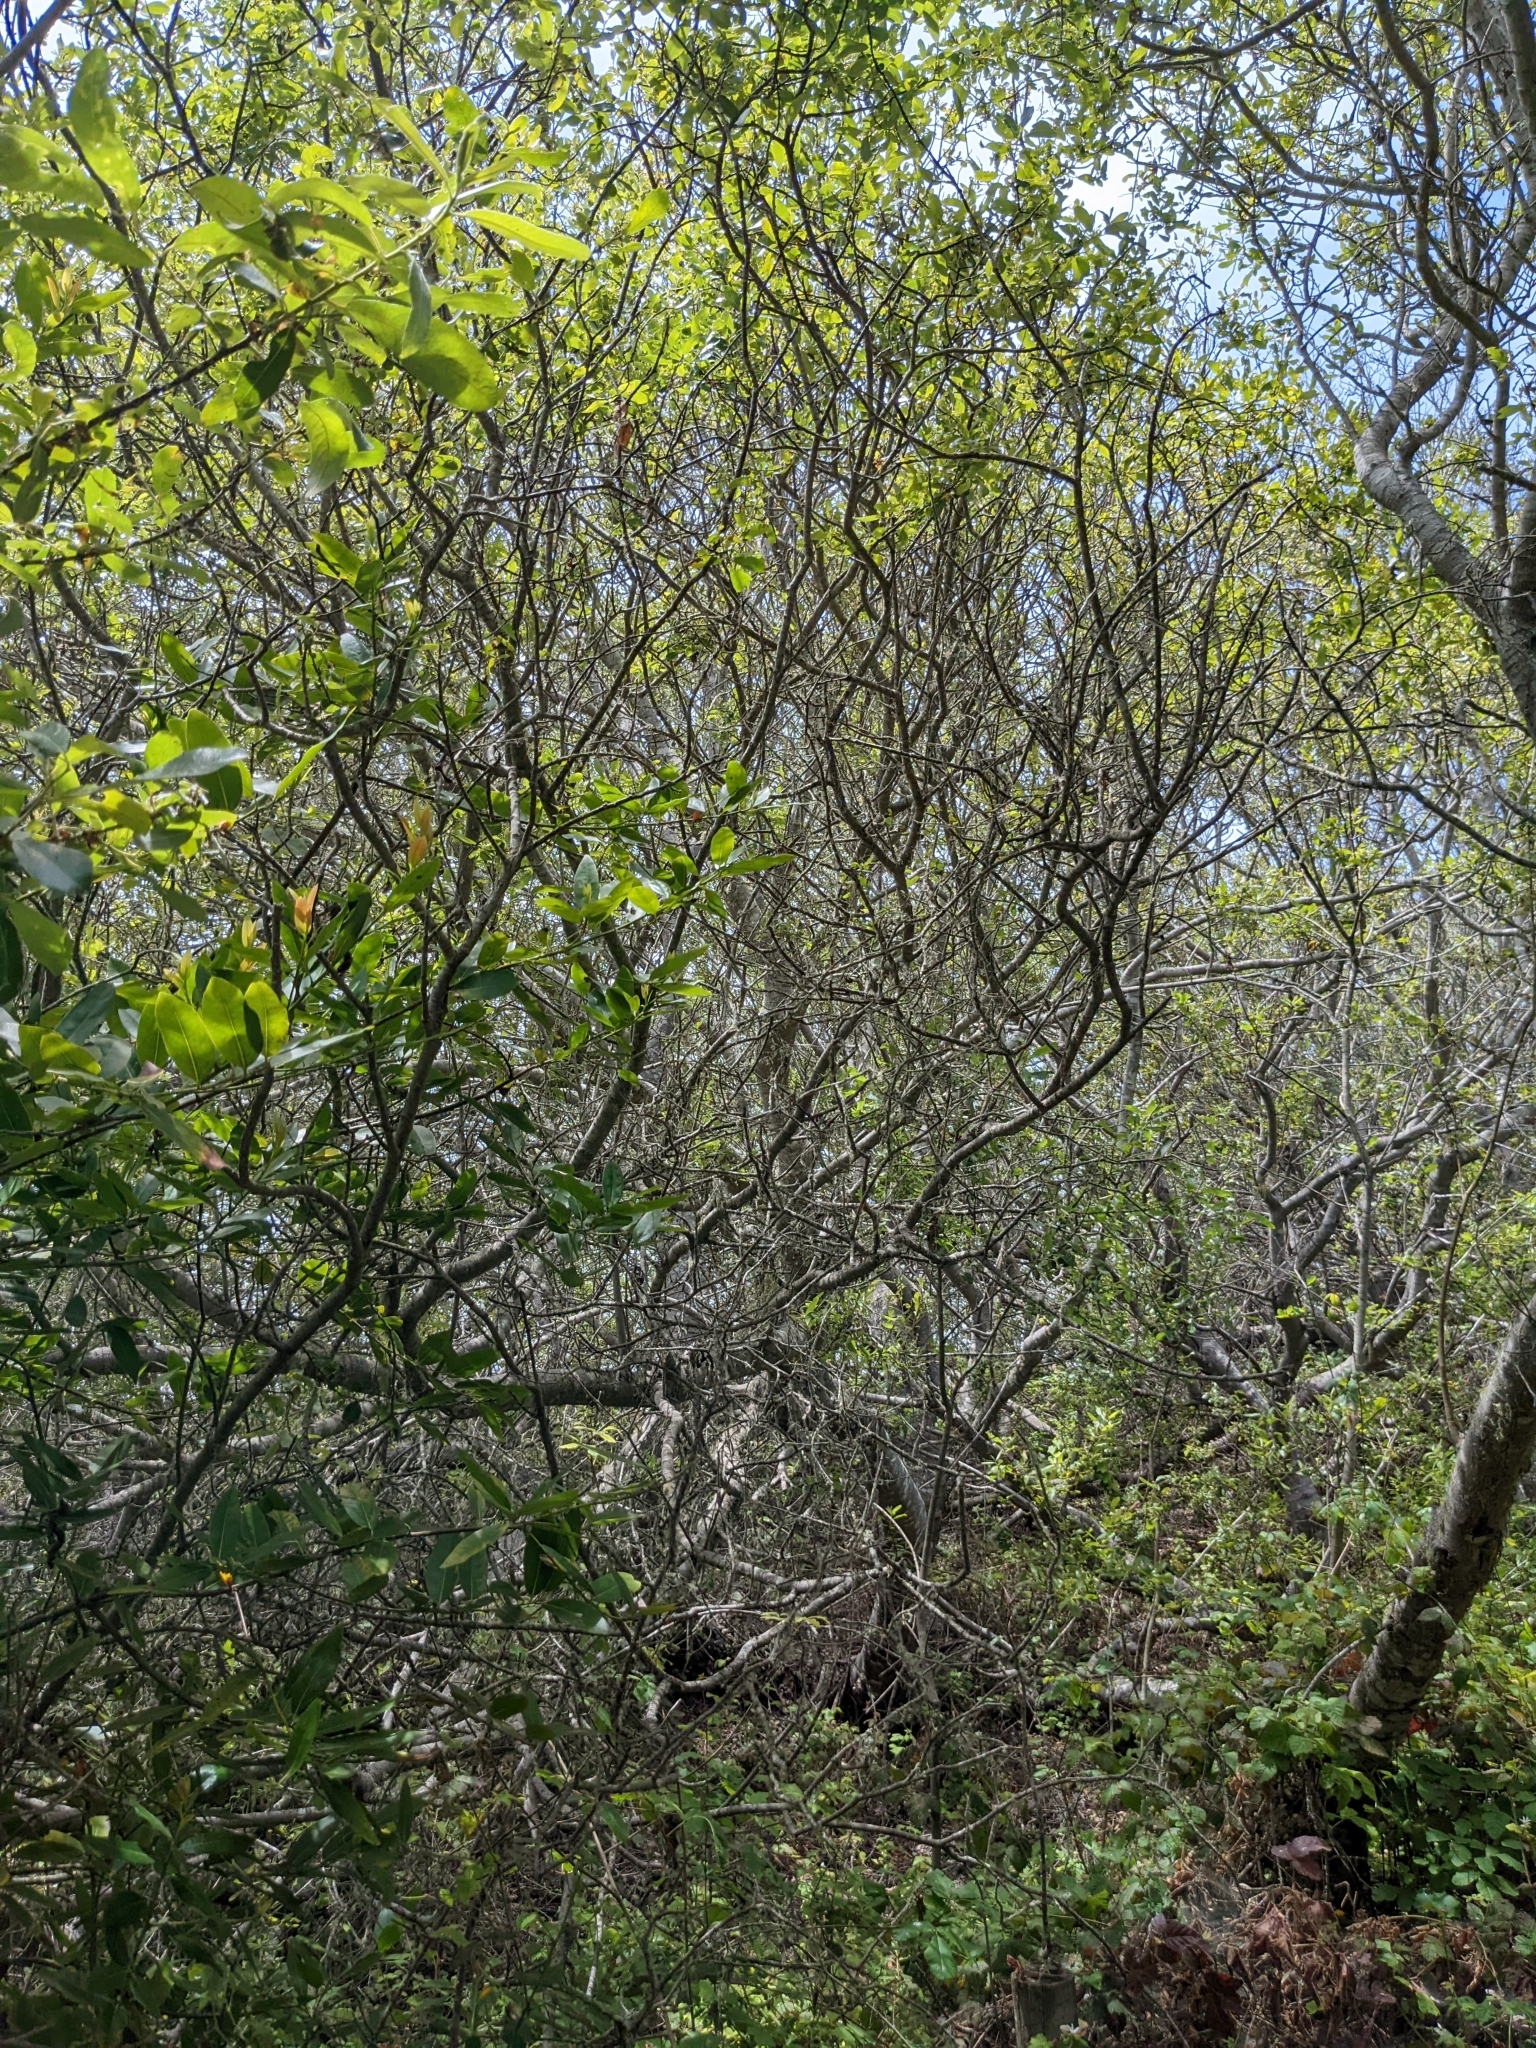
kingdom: Plantae
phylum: Tracheophyta
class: Magnoliopsida
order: Laurales
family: Lauraceae
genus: Umbellularia
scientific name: Umbellularia californica
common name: California bay
